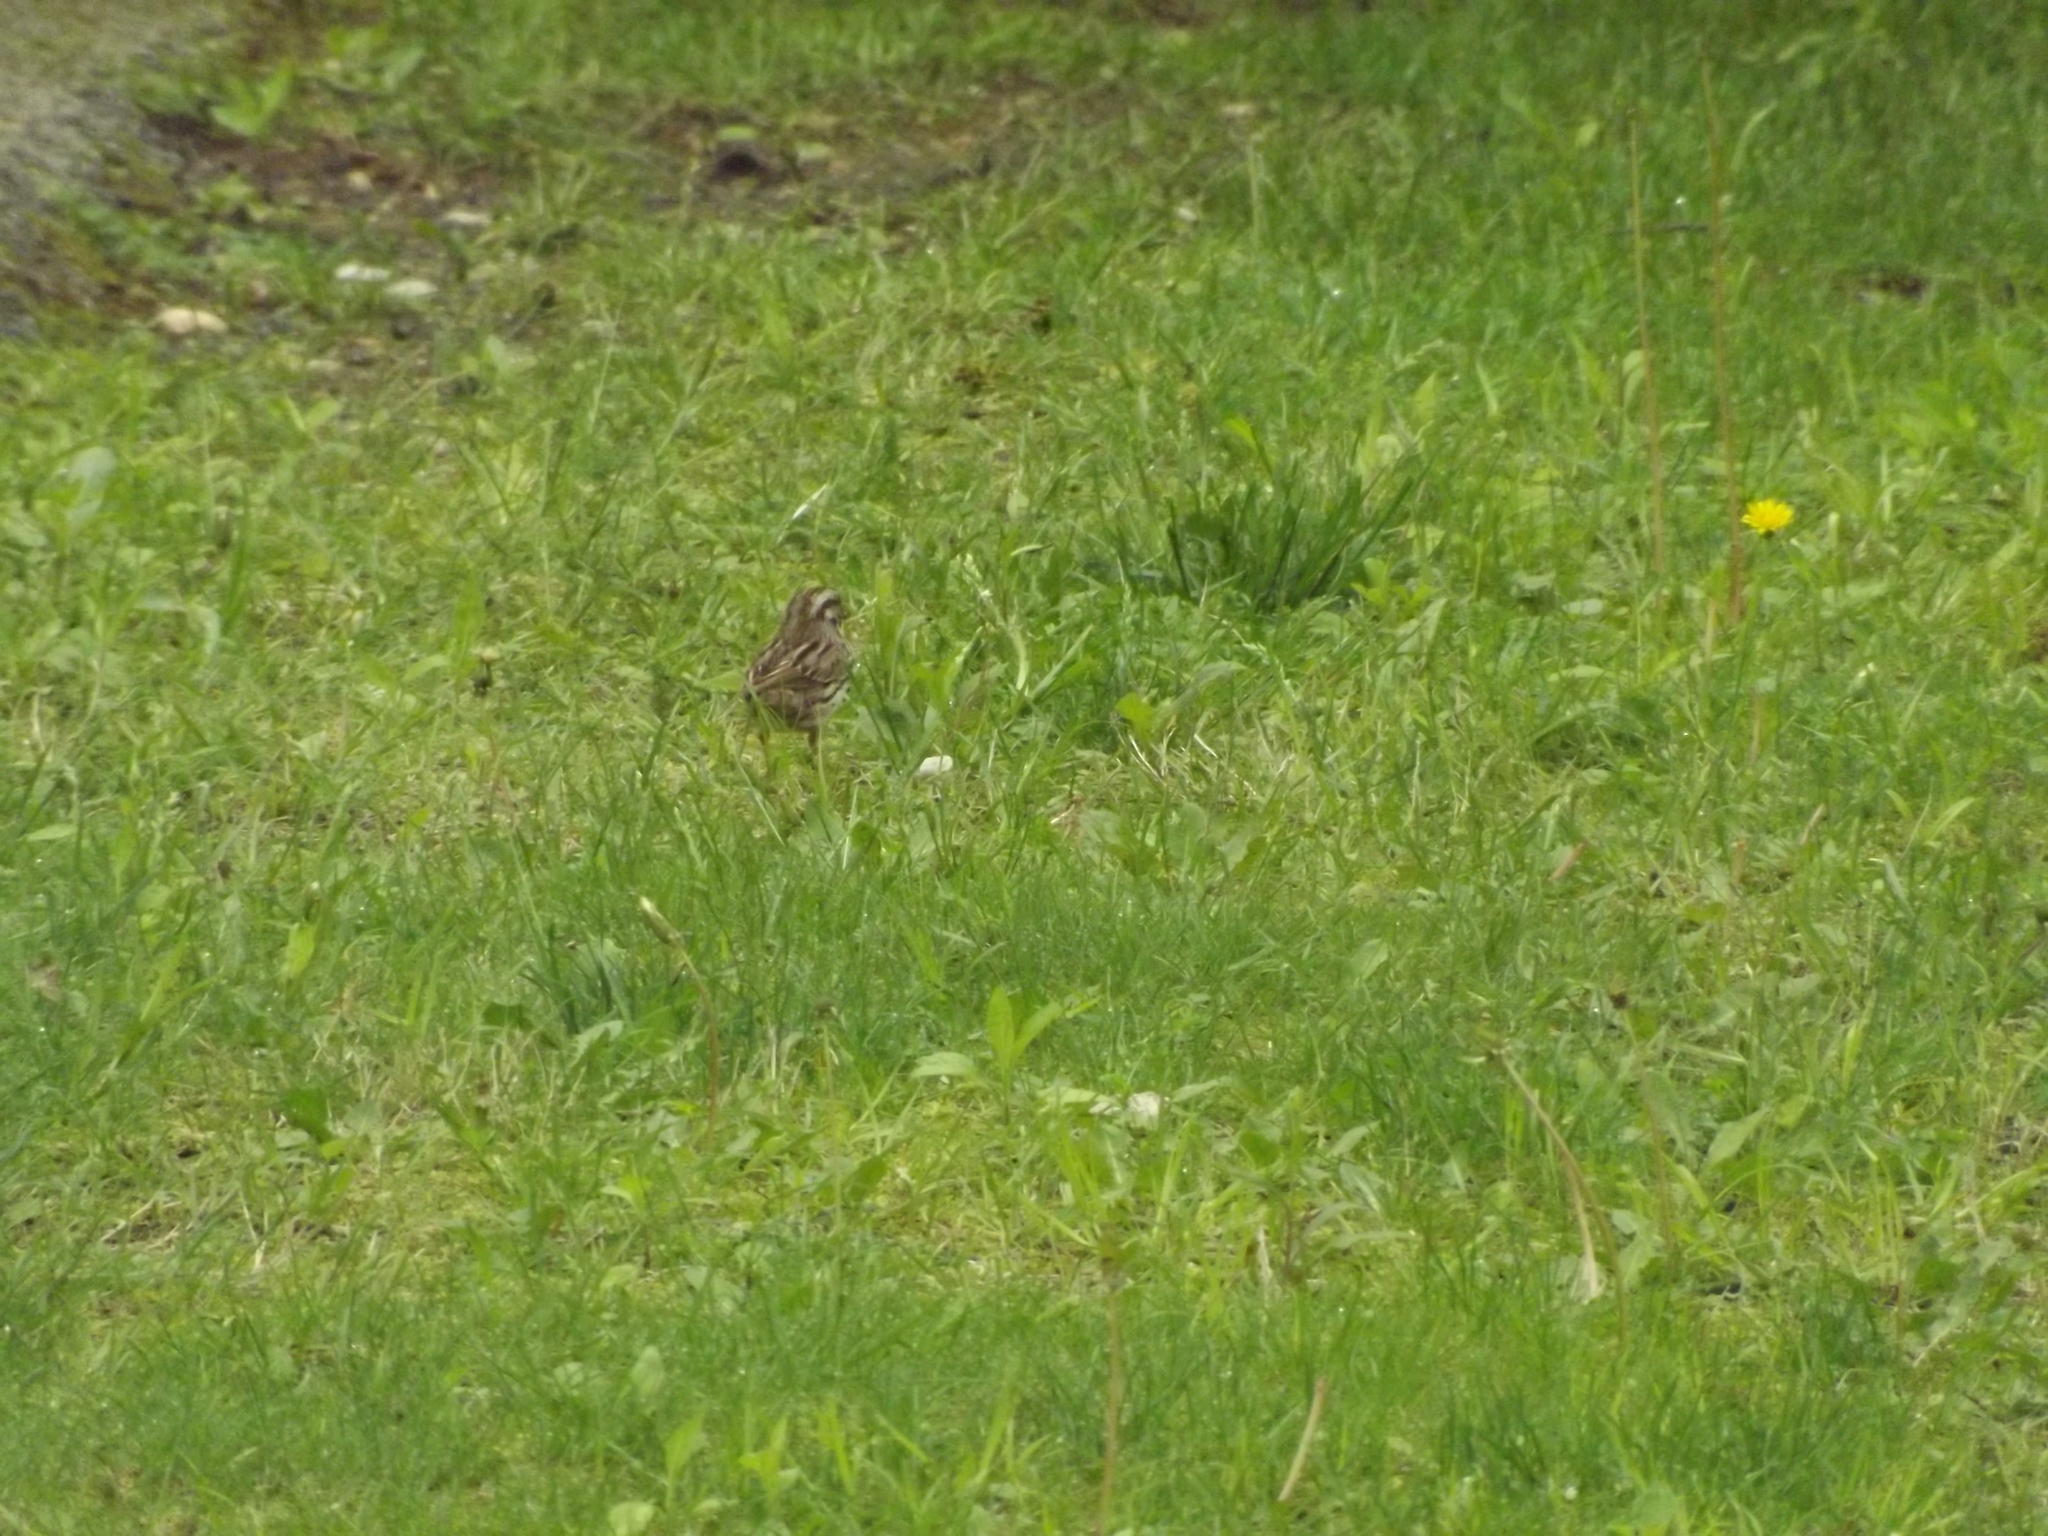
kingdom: Animalia
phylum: Chordata
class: Aves
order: Passeriformes
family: Passerellidae
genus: Melospiza
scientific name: Melospiza melodia
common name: Song sparrow
